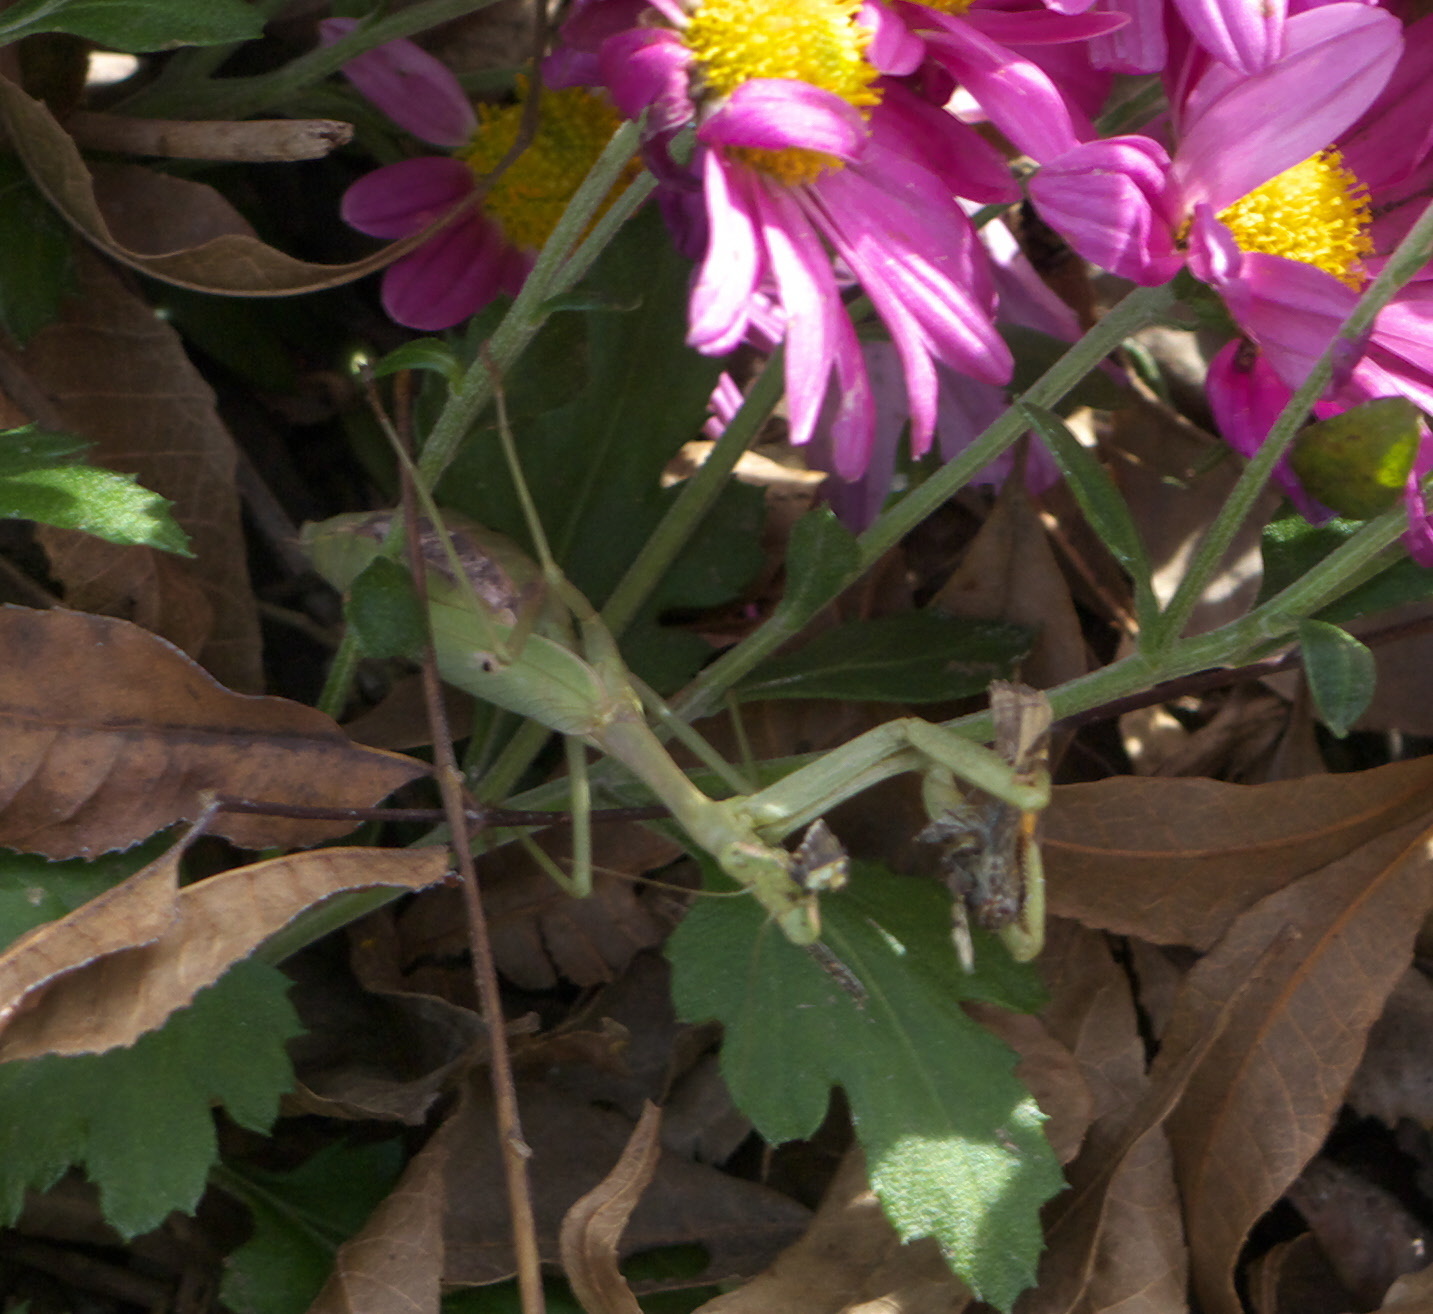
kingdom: Animalia
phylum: Arthropoda
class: Insecta
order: Mantodea
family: Mantidae
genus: Stagmomantis
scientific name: Stagmomantis carolina
